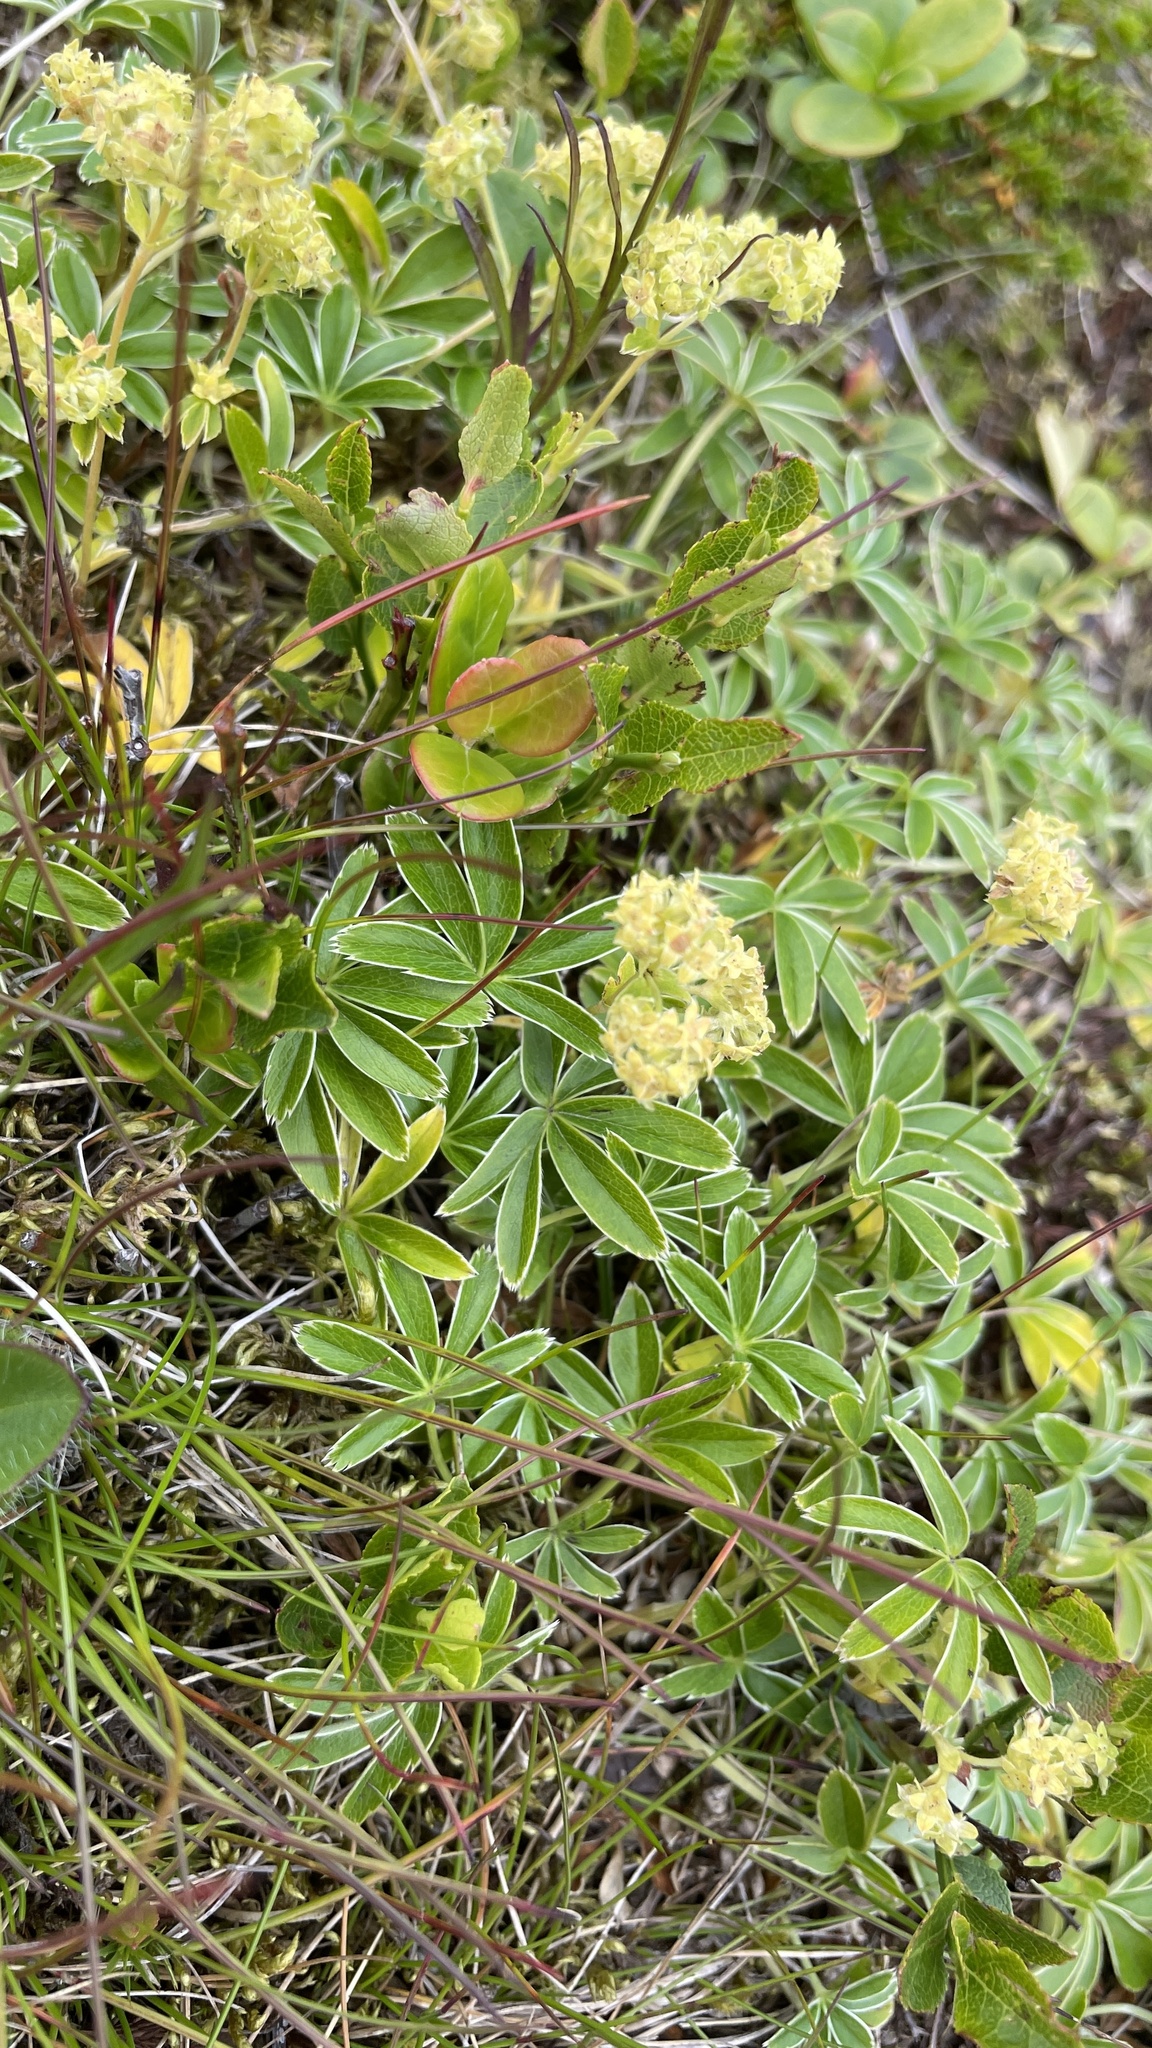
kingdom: Plantae
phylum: Tracheophyta
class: Magnoliopsida
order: Rosales
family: Rosaceae
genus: Alchemilla
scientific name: Alchemilla alpina
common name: Alpine lady's-mantle
